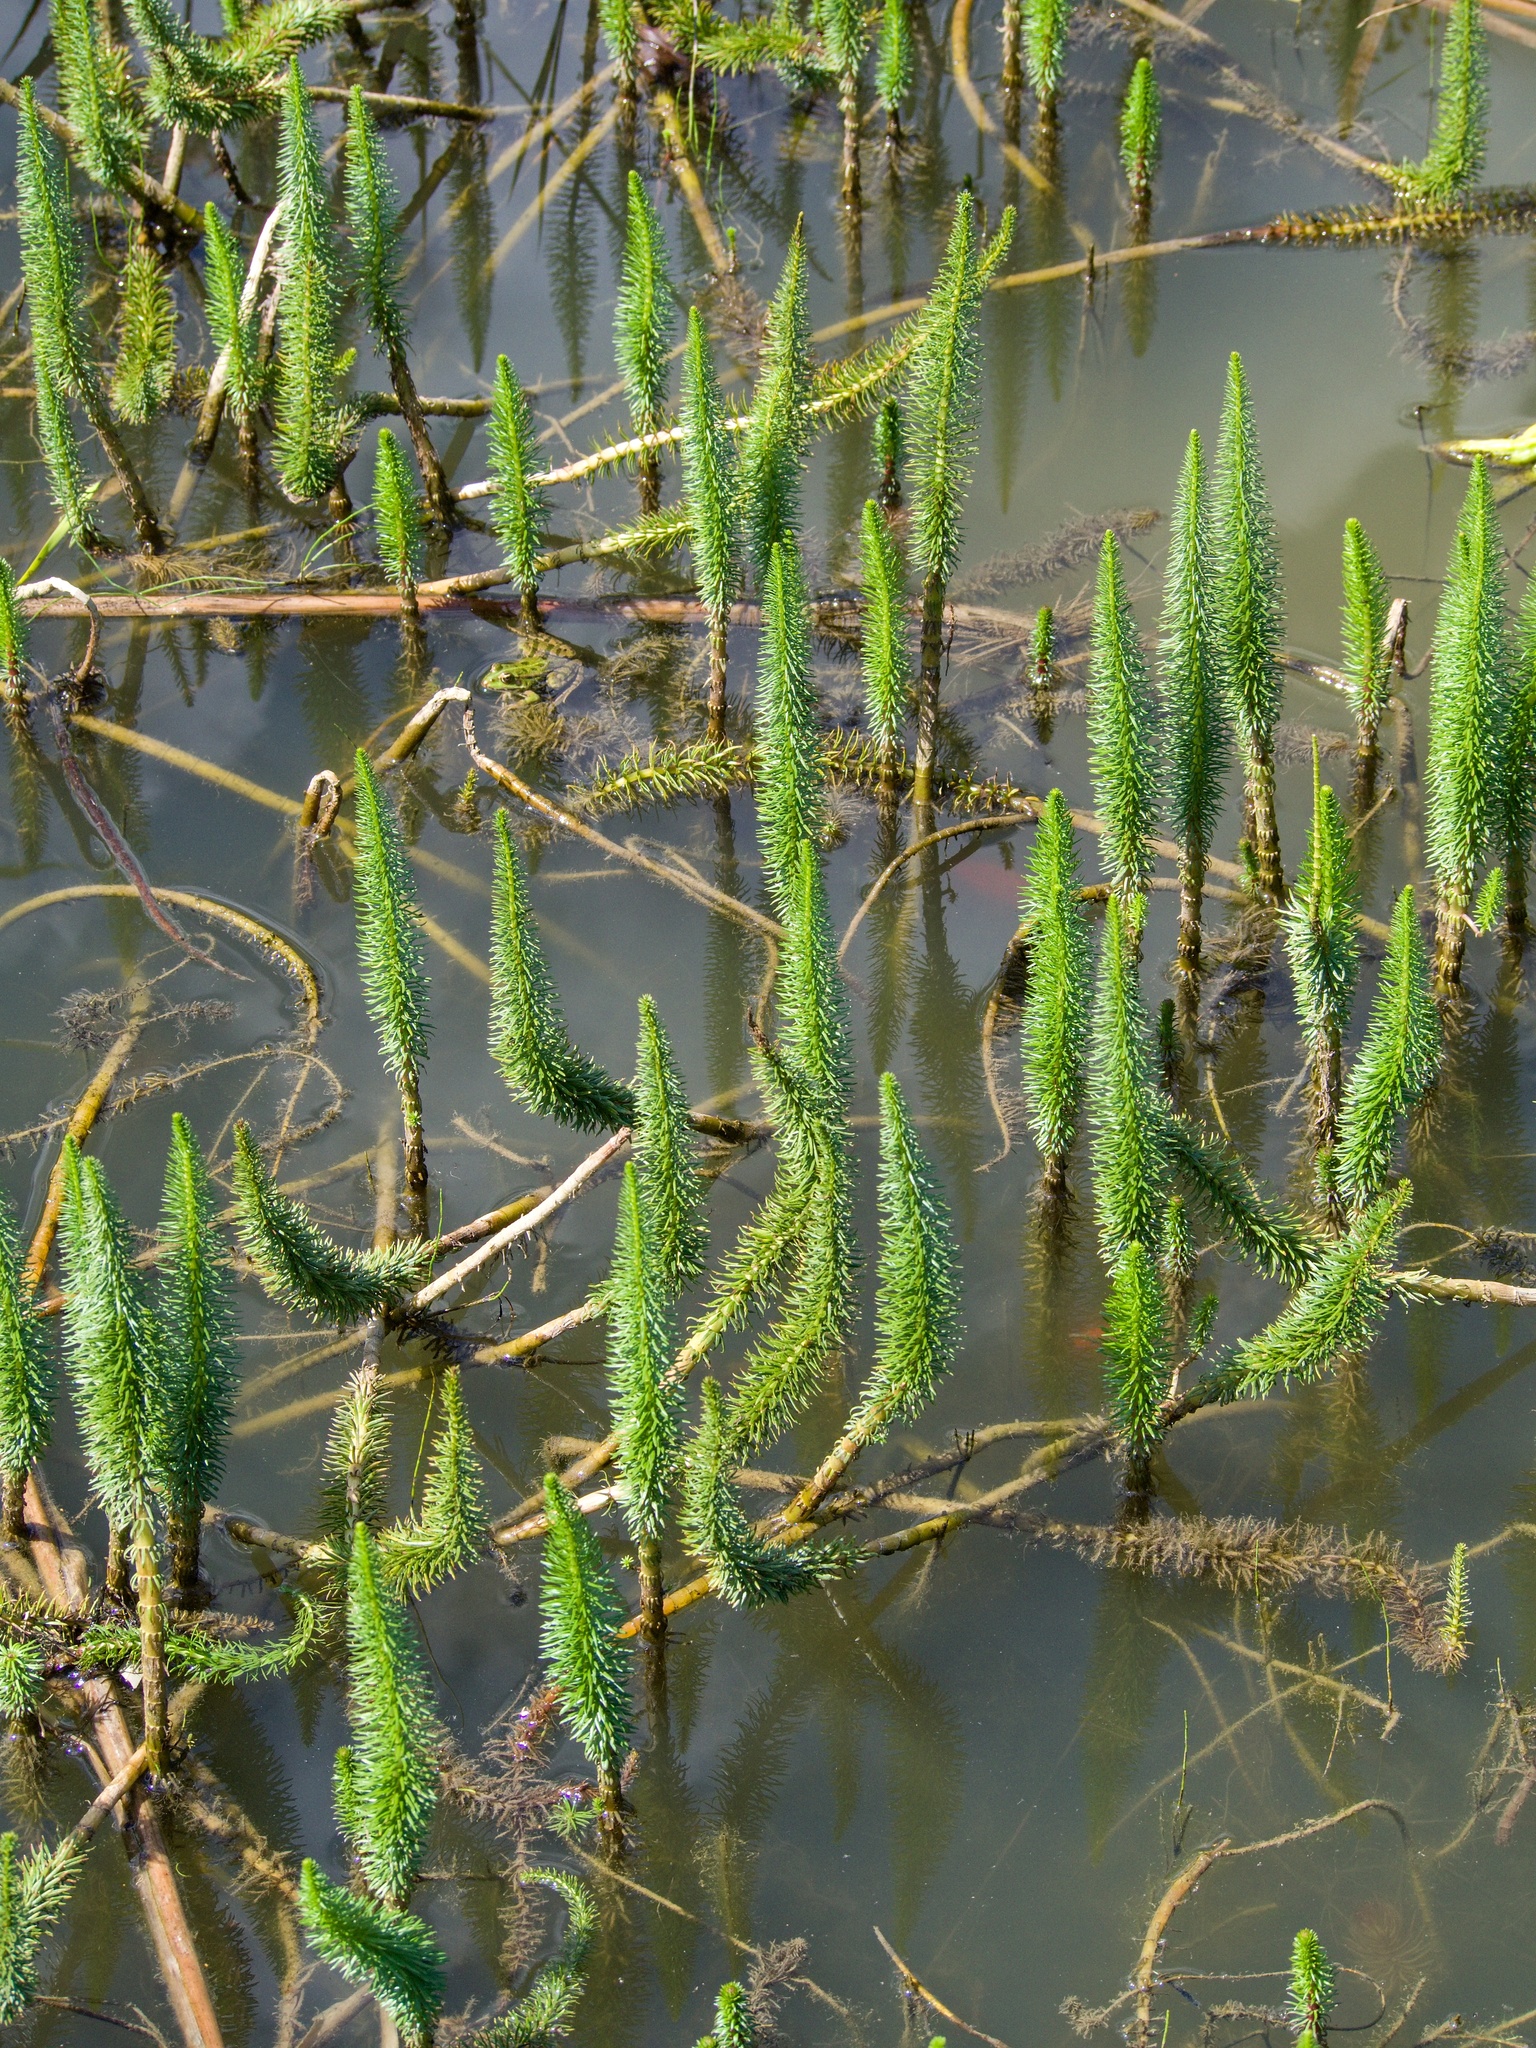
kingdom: Plantae
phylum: Tracheophyta
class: Magnoliopsida
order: Lamiales
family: Plantaginaceae
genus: Hippuris
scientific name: Hippuris vulgaris
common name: Mare's-tail
